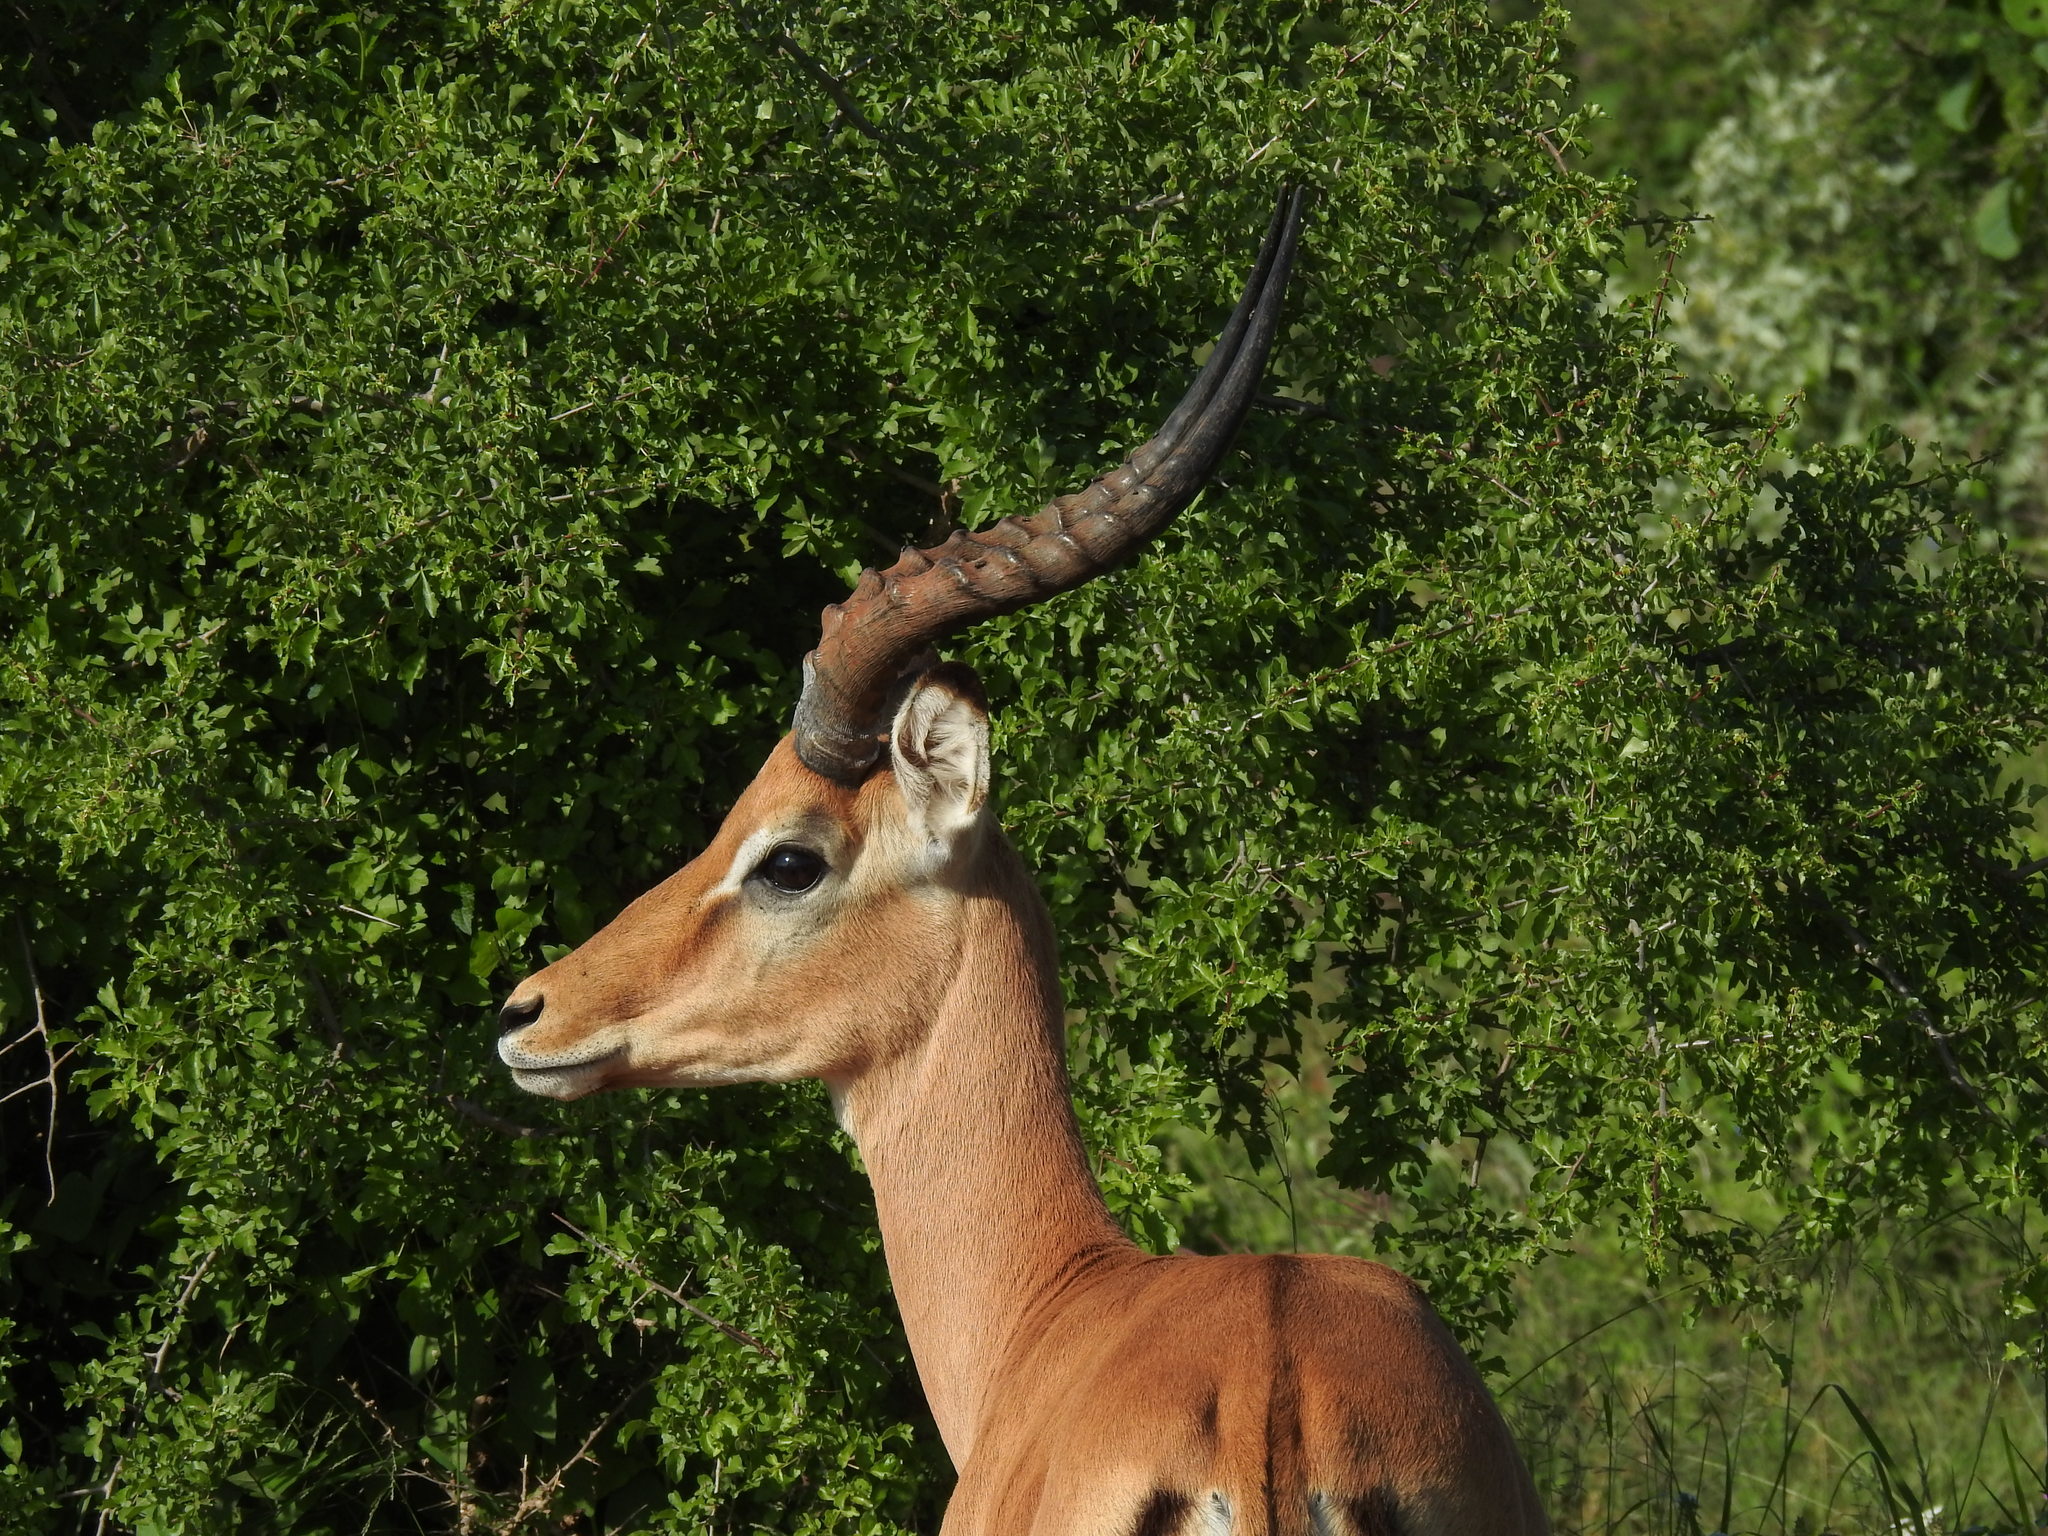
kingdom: Animalia
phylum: Chordata
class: Mammalia
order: Artiodactyla
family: Bovidae
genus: Aepyceros
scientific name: Aepyceros melampus
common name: Impala
